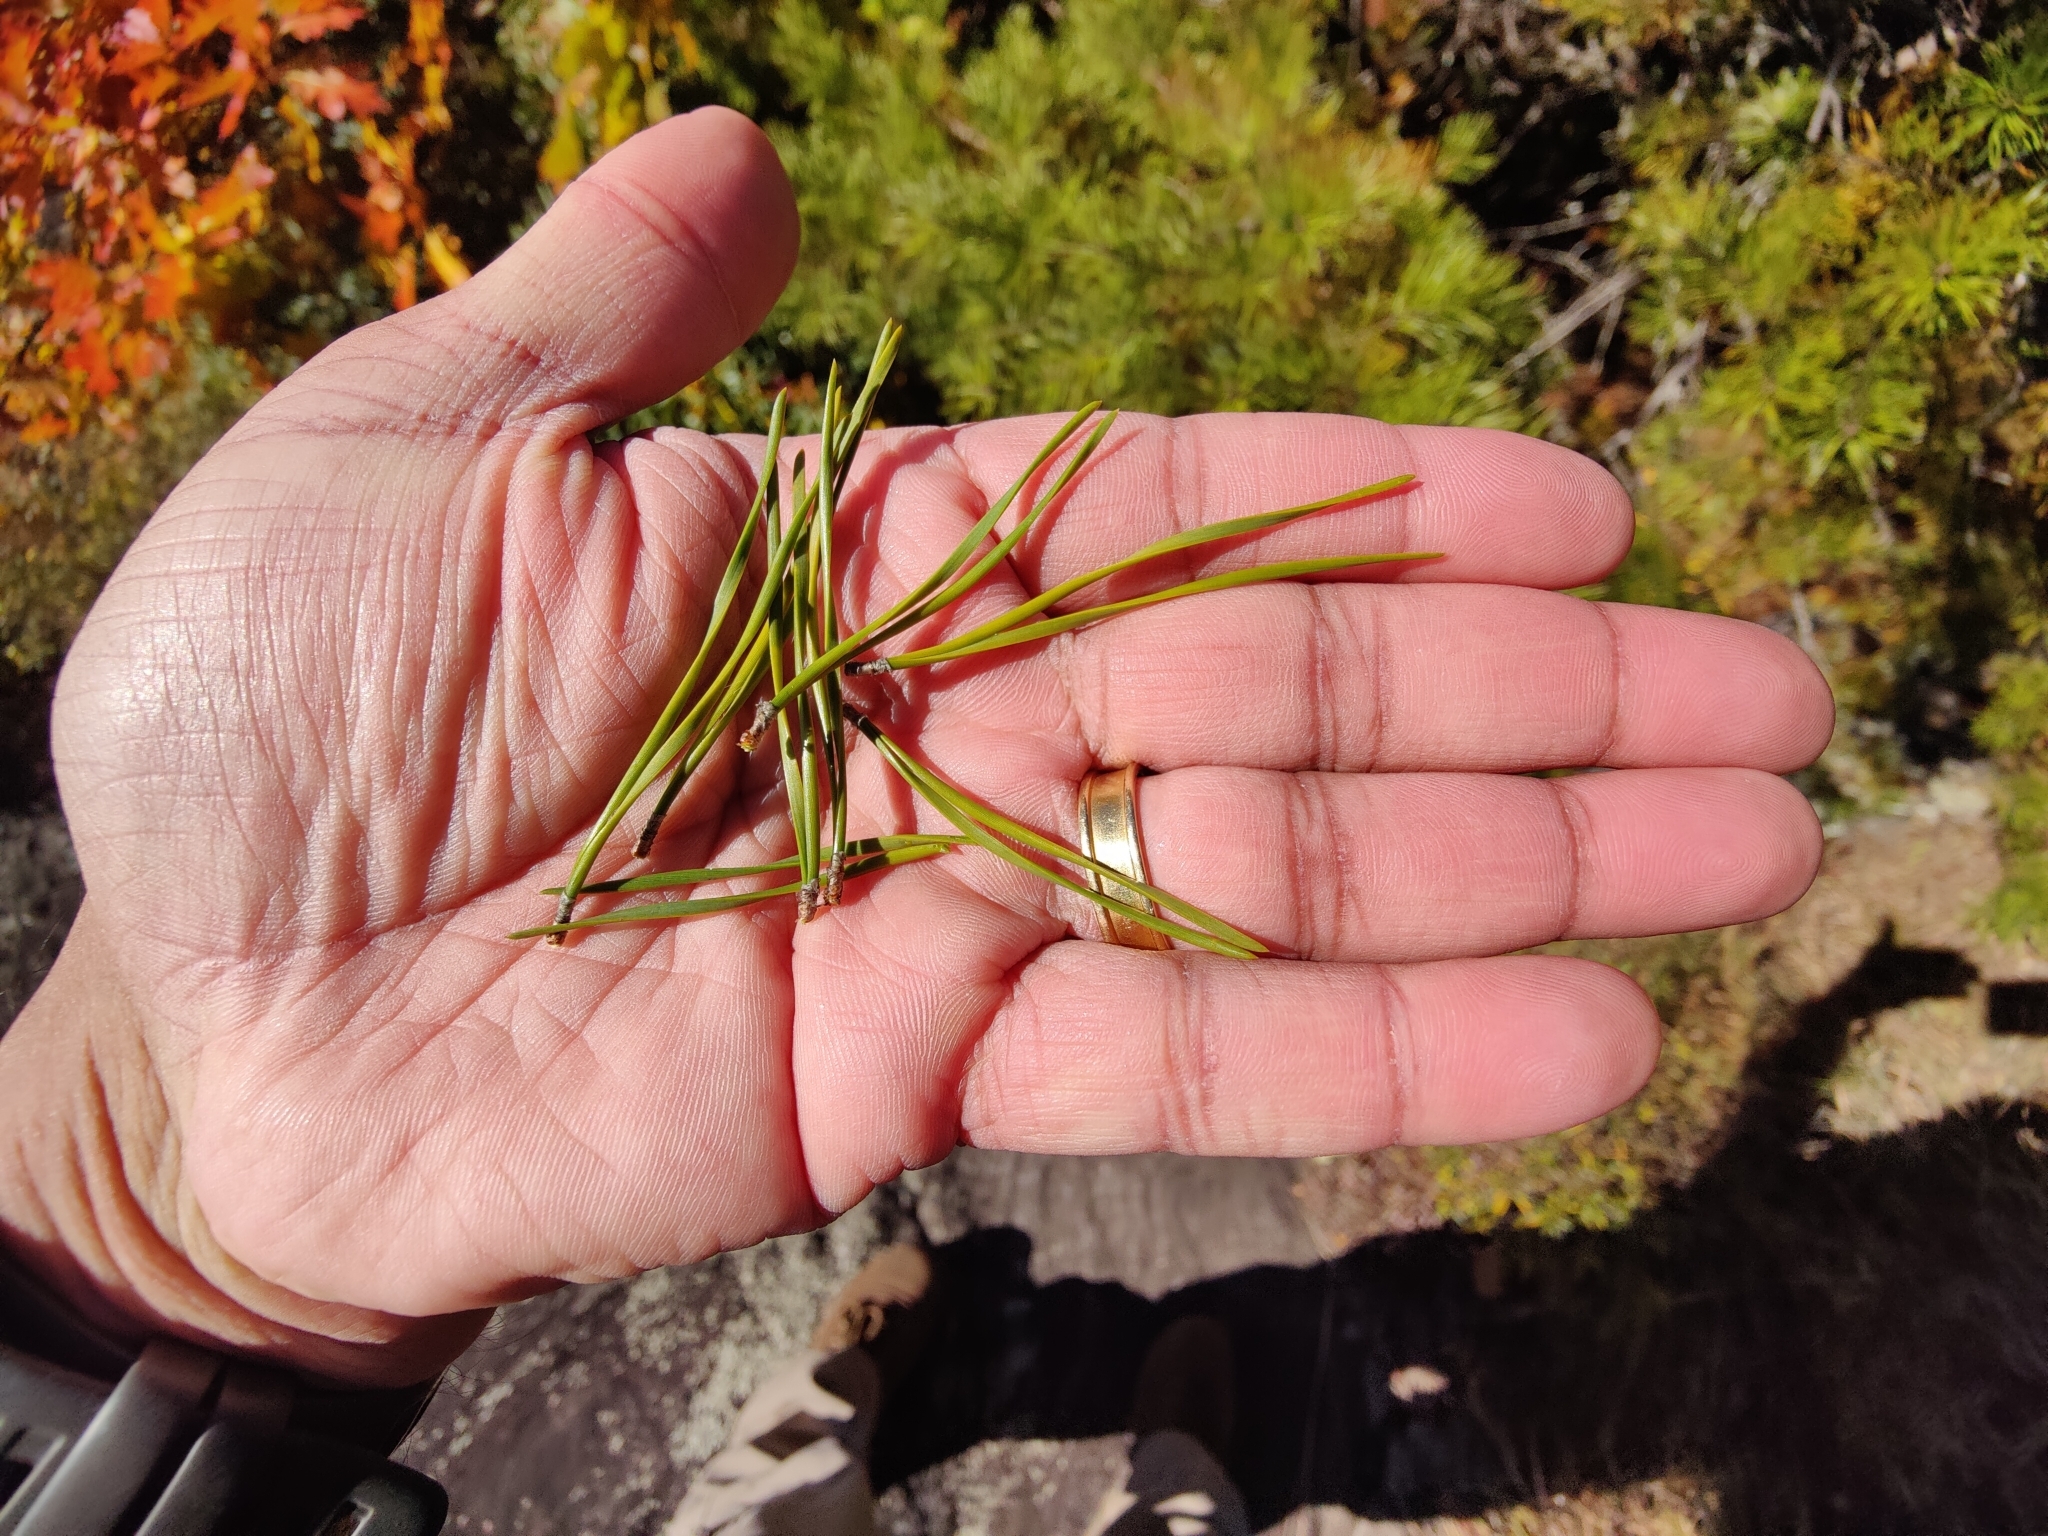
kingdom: Plantae
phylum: Tracheophyta
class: Pinopsida
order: Pinales
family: Pinaceae
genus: Pinus
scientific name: Pinus virginiana
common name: Scrub pine
